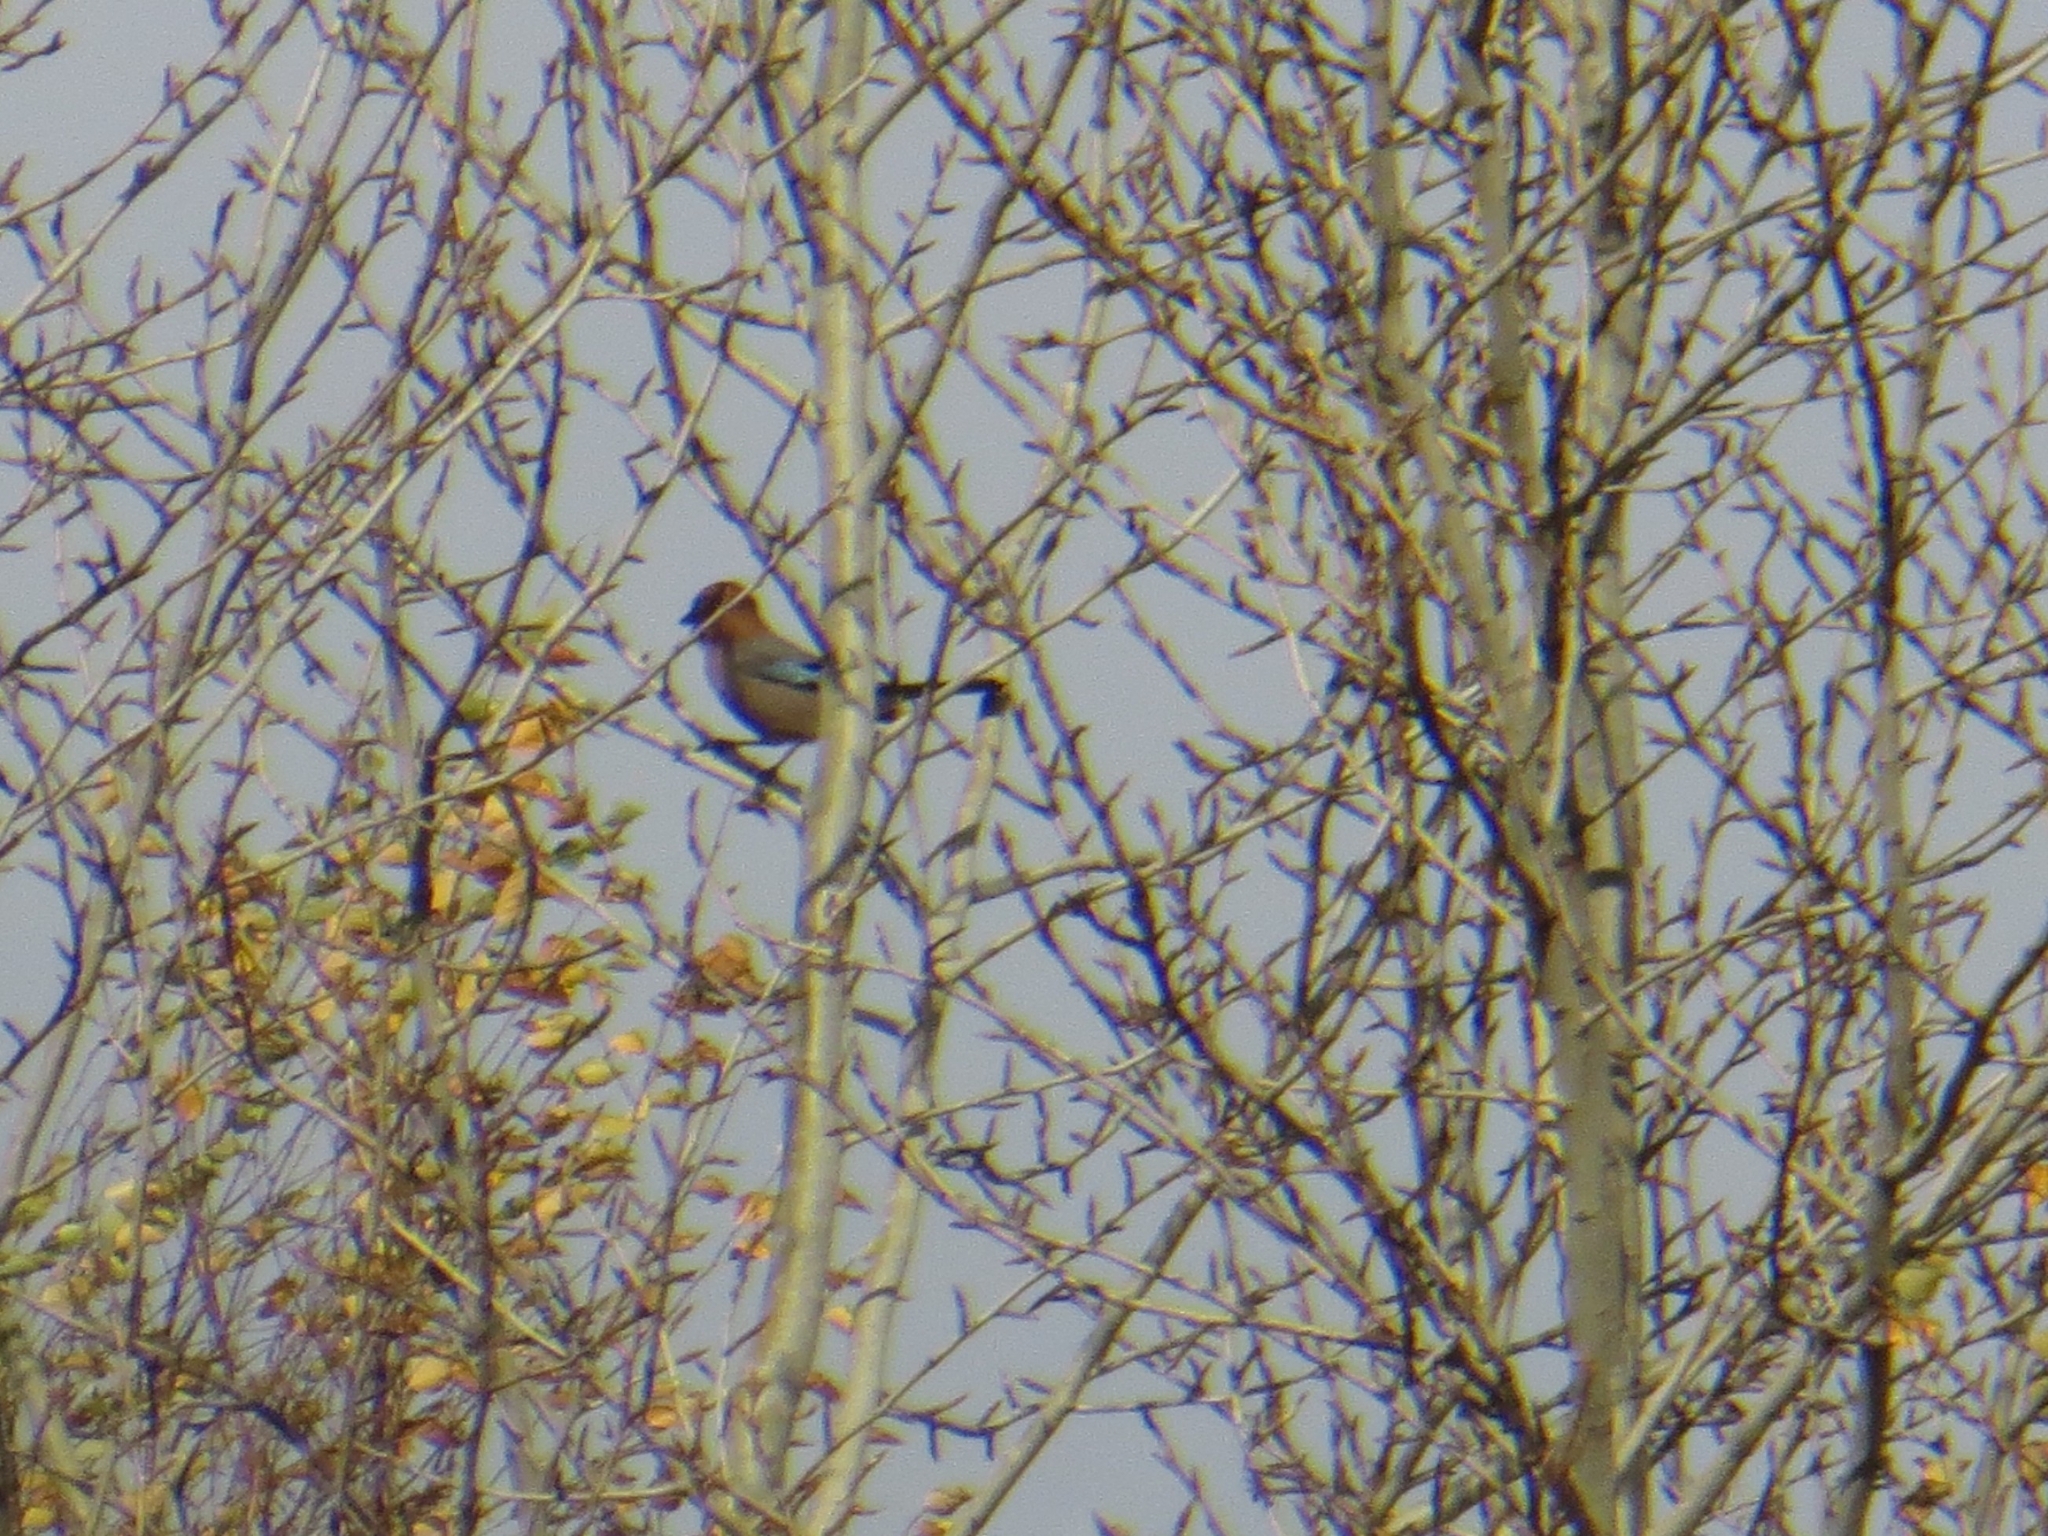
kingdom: Animalia
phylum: Chordata
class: Aves
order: Passeriformes
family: Corvidae
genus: Garrulus
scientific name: Garrulus glandarius
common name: Eurasian jay
